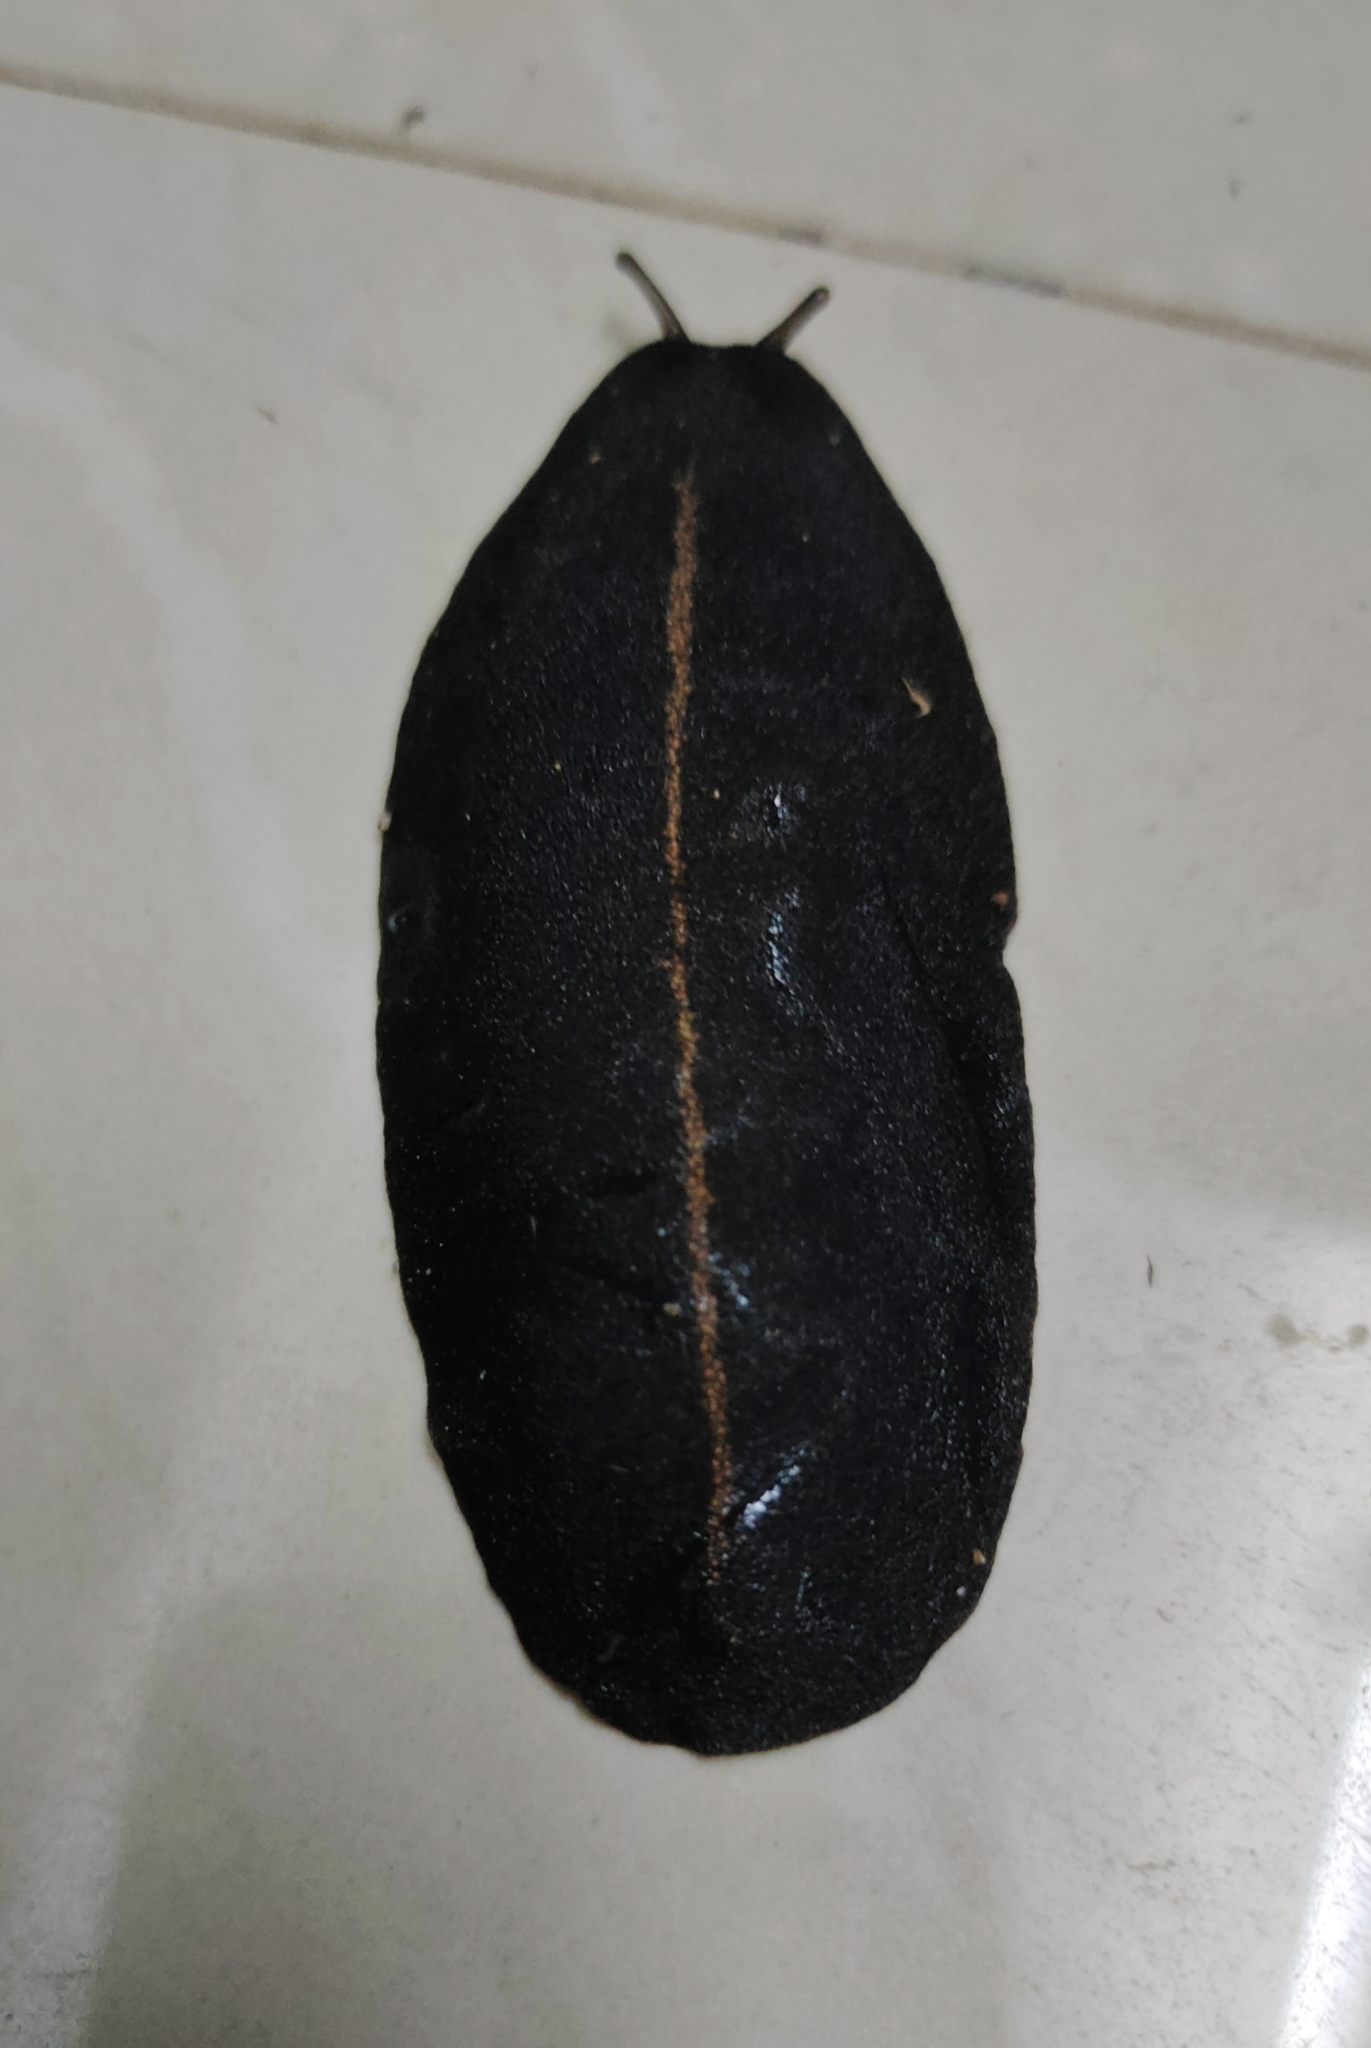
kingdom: Animalia
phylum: Mollusca
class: Gastropoda
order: Systellommatophora
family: Veronicellidae
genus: Laevicaulis
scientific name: Laevicaulis alte
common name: Tropical leatherleaf
